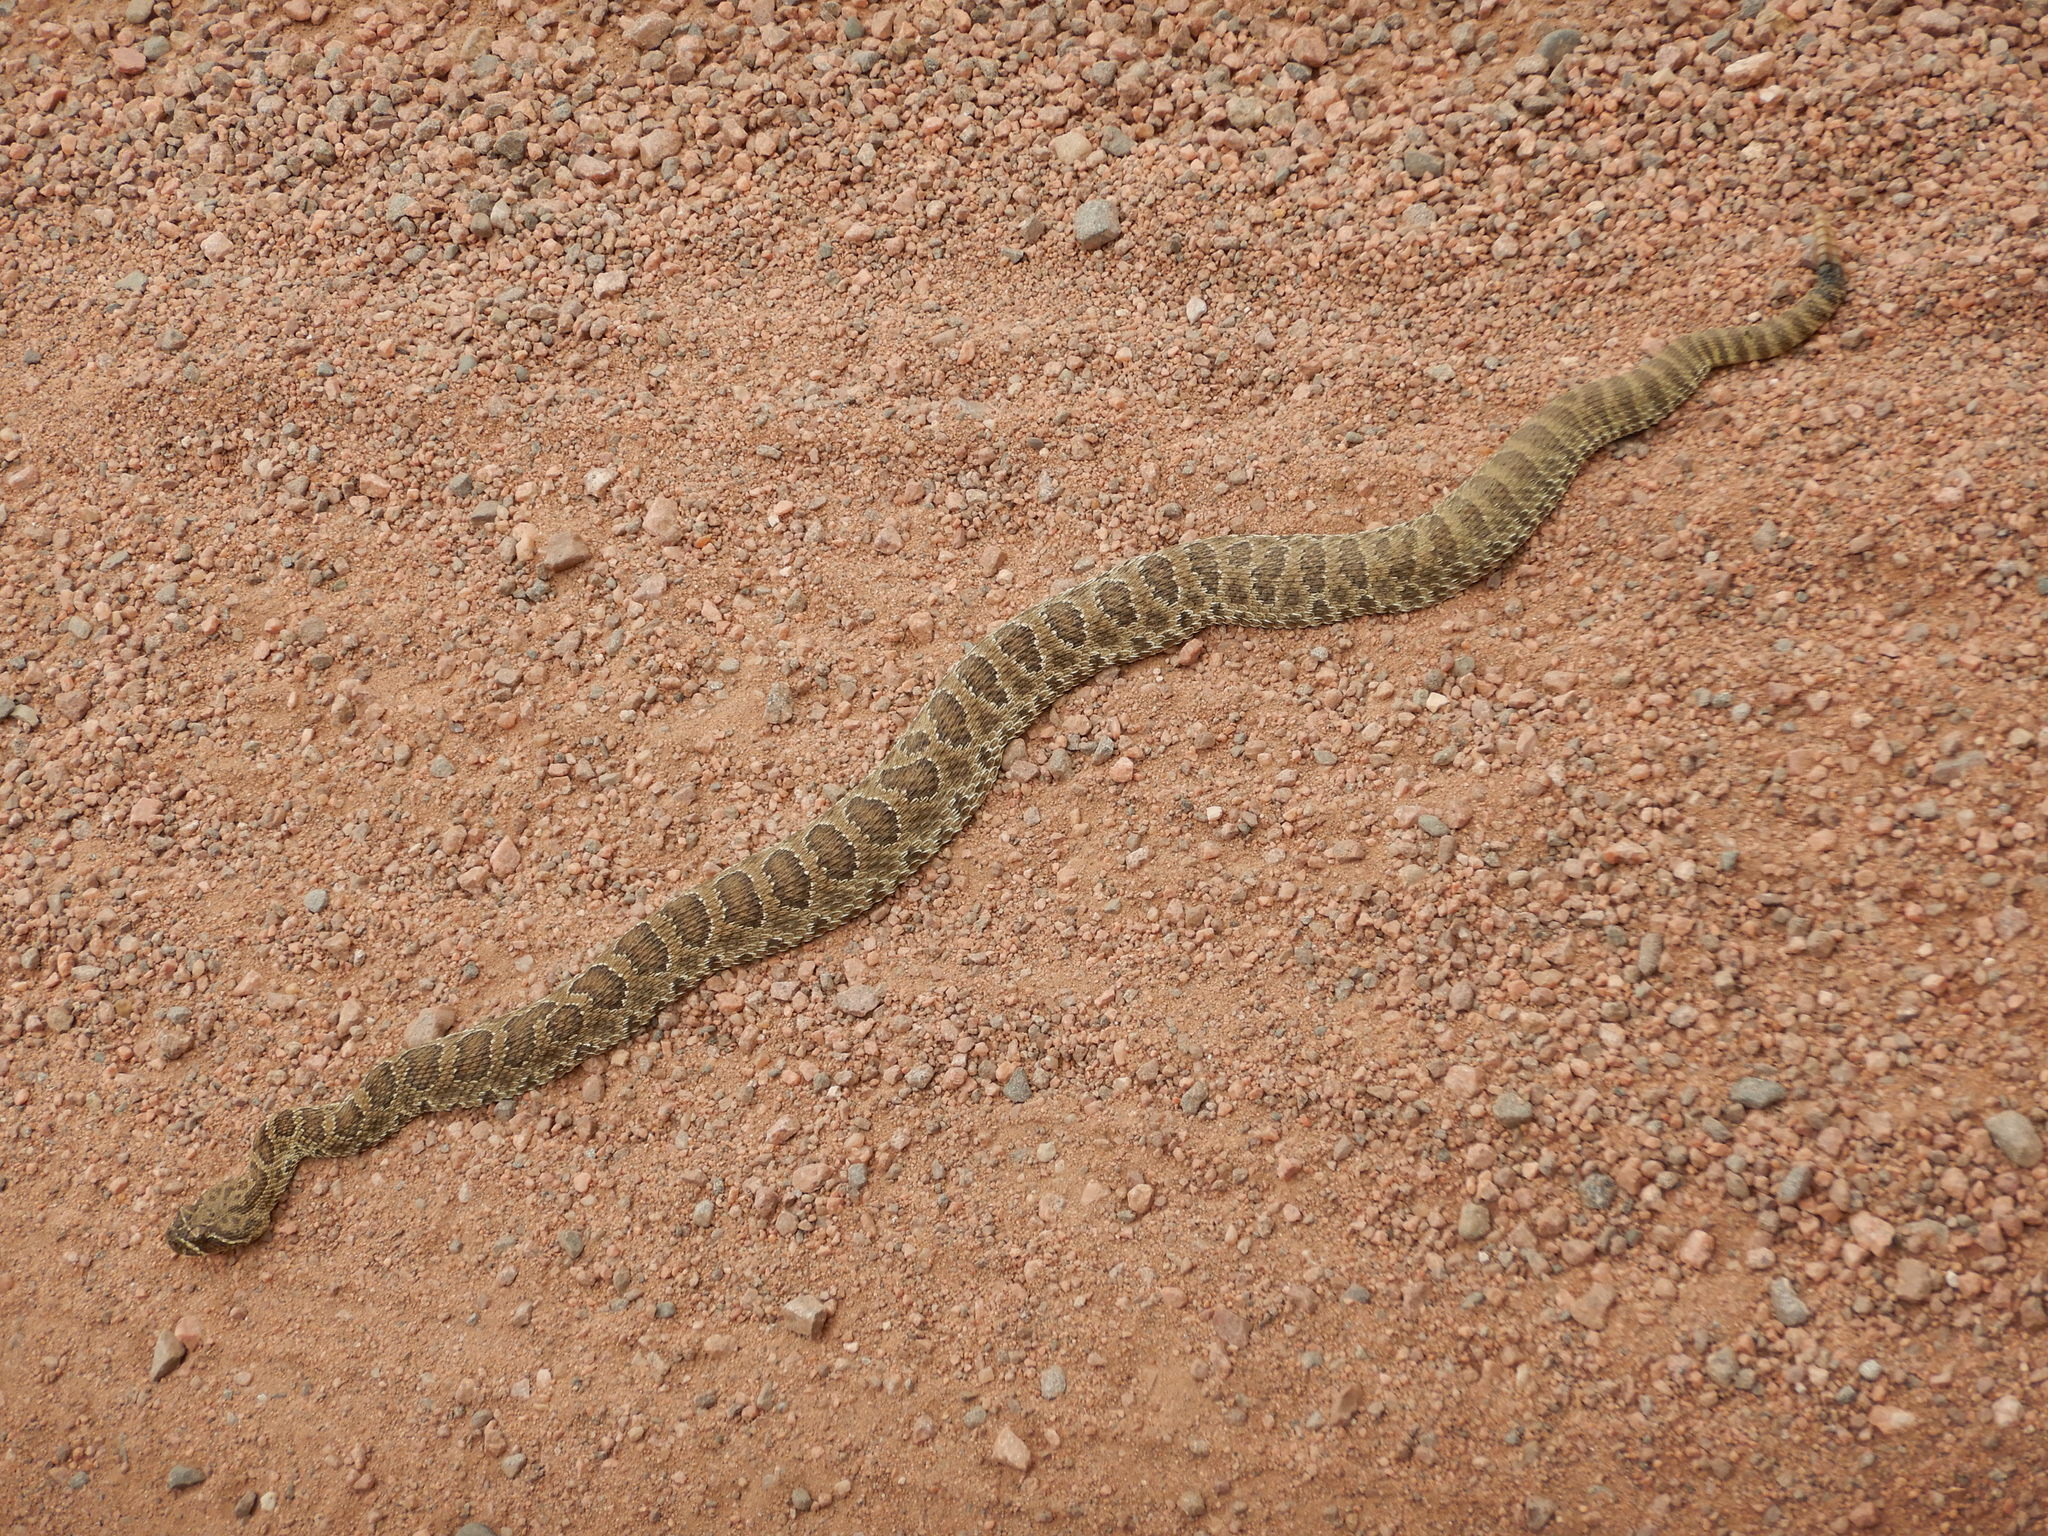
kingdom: Animalia
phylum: Chordata
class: Squamata
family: Viperidae
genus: Crotalus
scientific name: Crotalus viridis
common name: Prairie rattlesnake
